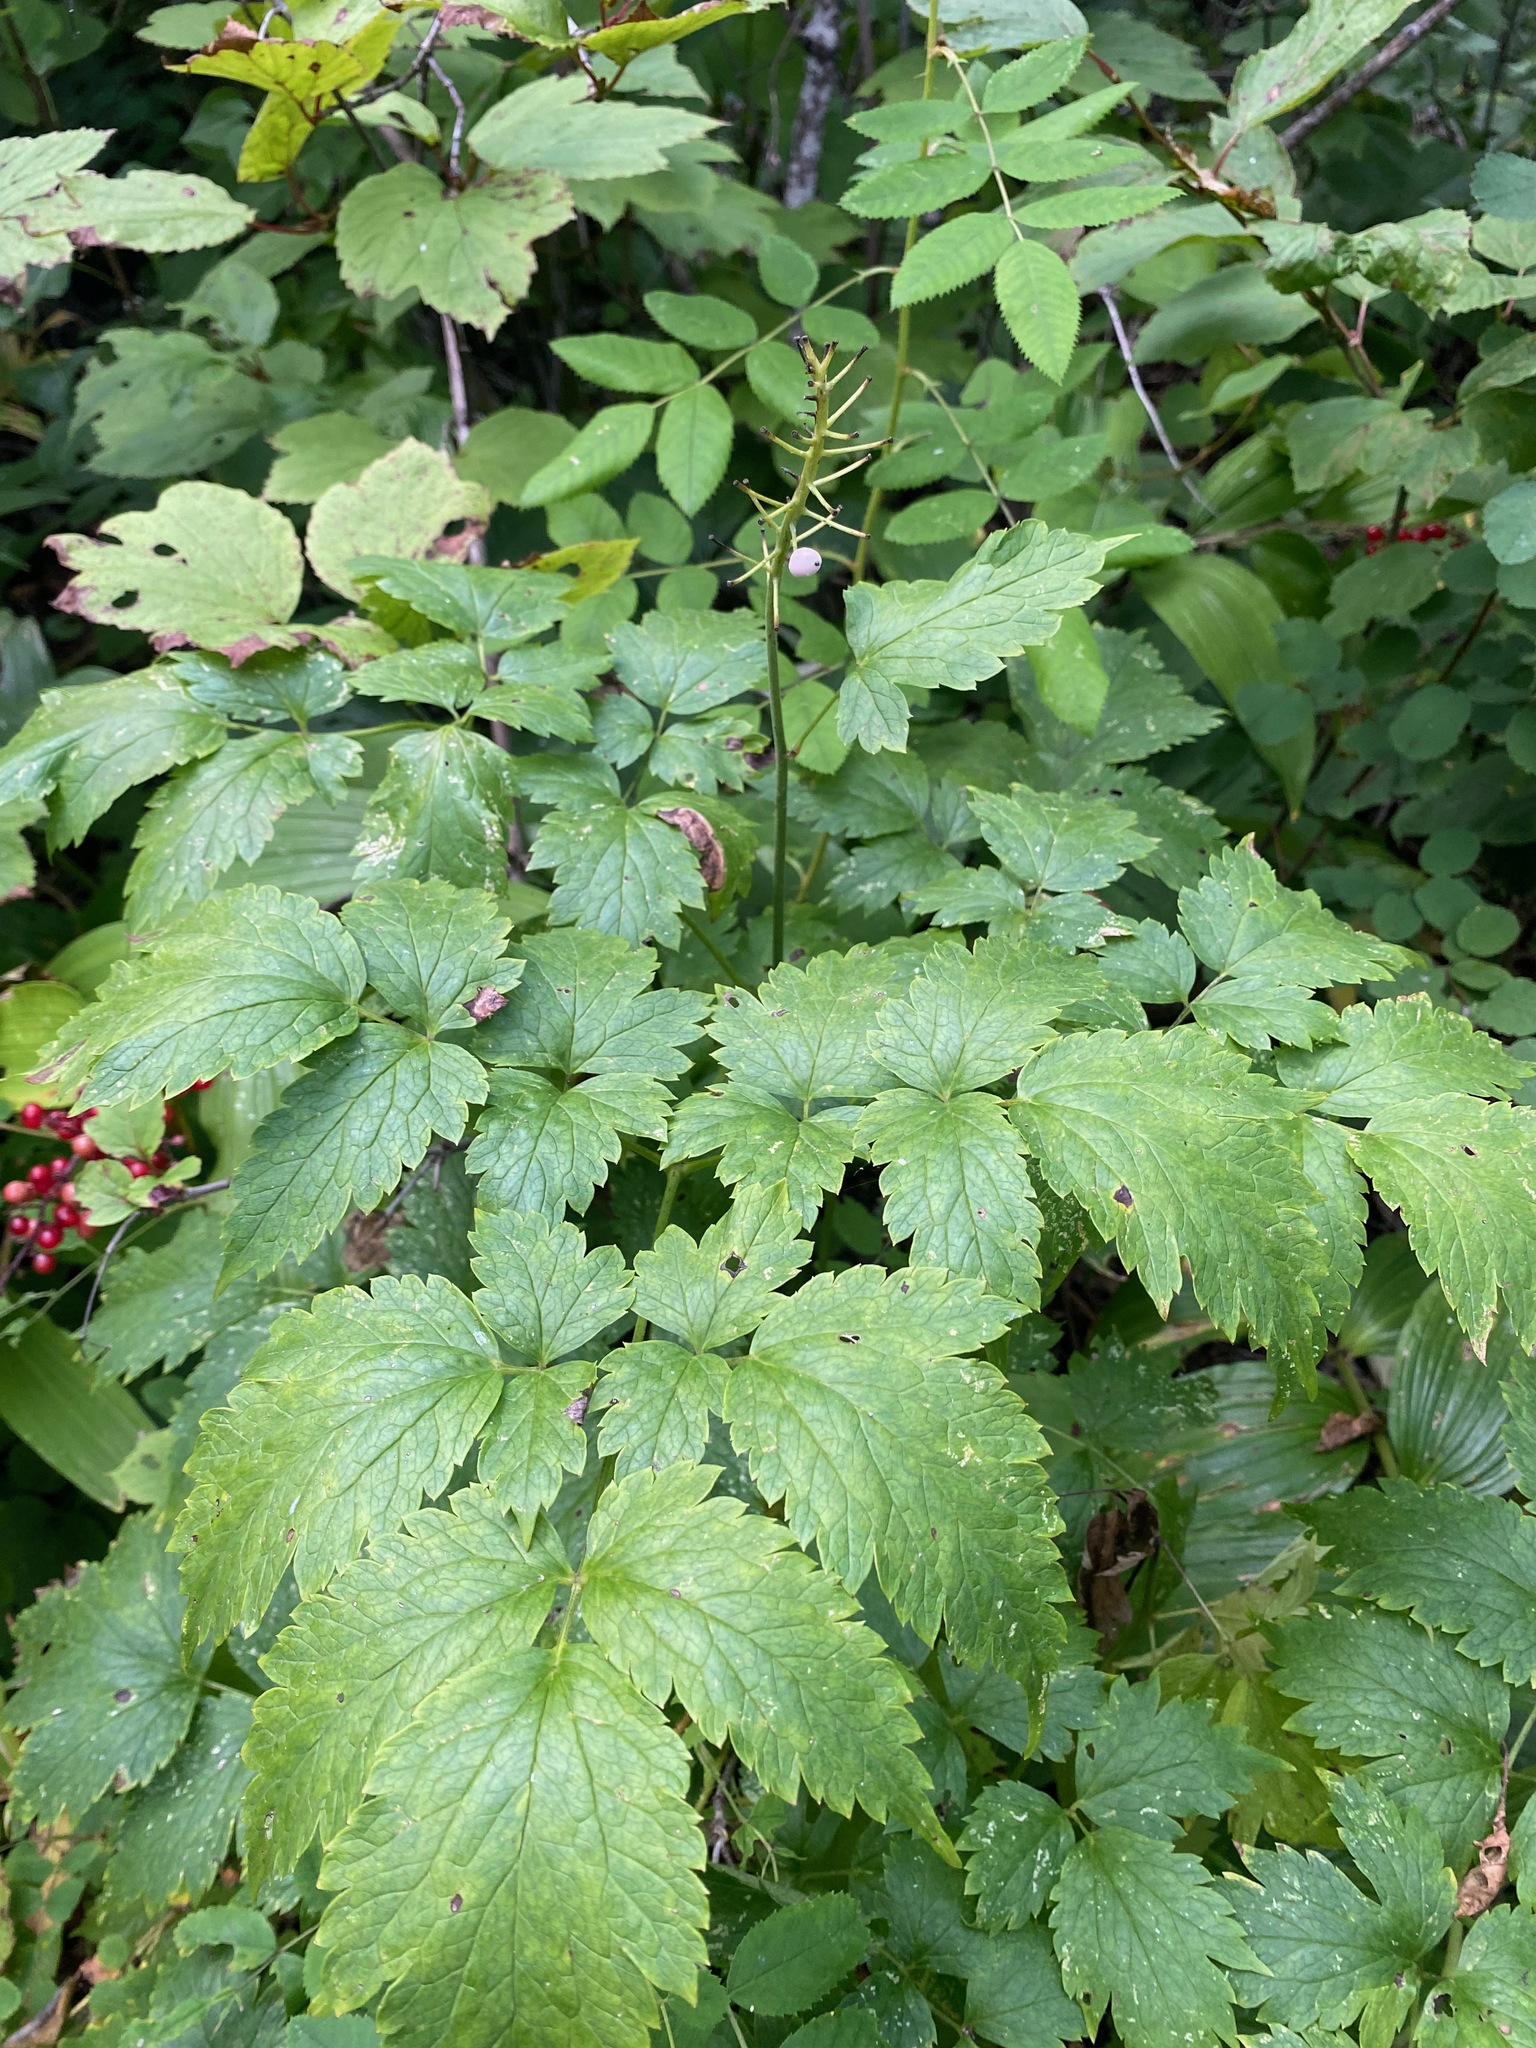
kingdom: Plantae
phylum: Tracheophyta
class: Magnoliopsida
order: Ranunculales
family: Ranunculaceae
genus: Actaea
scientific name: Actaea rubra
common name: Red baneberry
